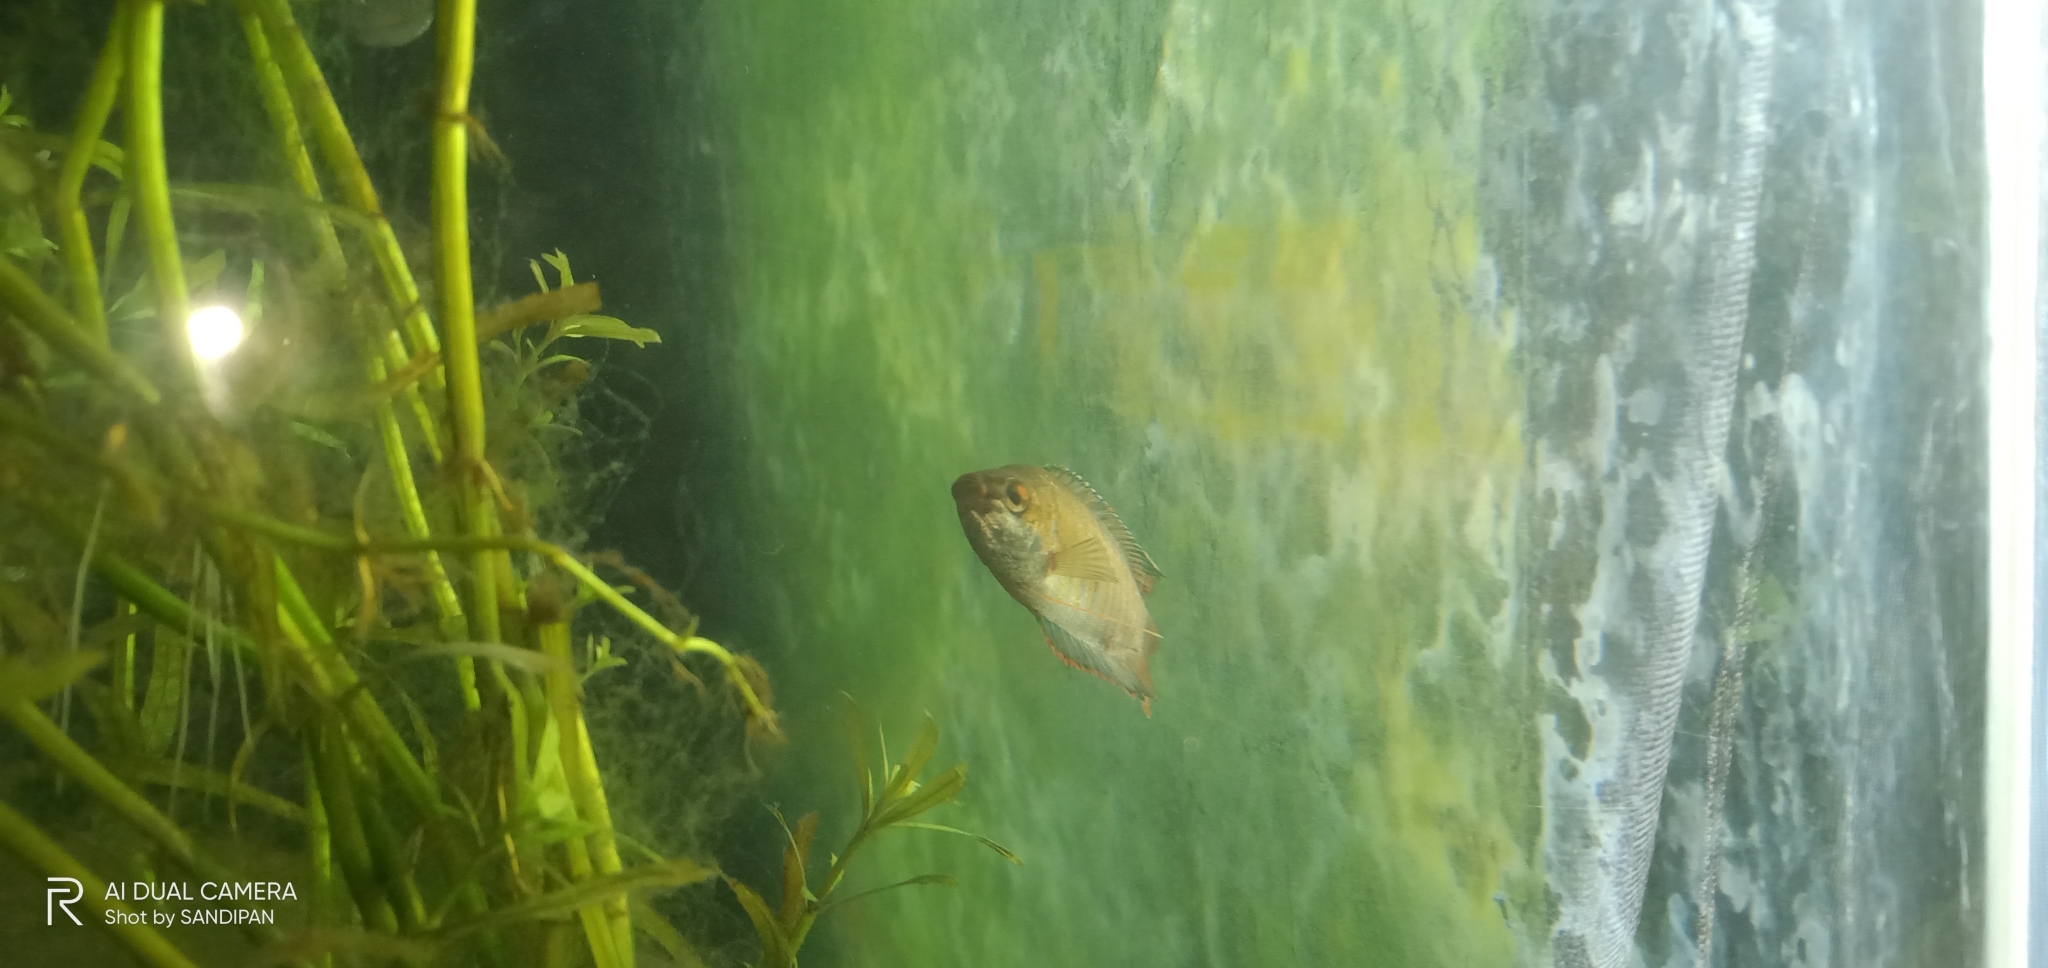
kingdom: Animalia
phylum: Chordata
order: Perciformes
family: Osphronemidae
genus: Trichogaster
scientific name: Trichogaster fasciata
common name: Banded gourami
